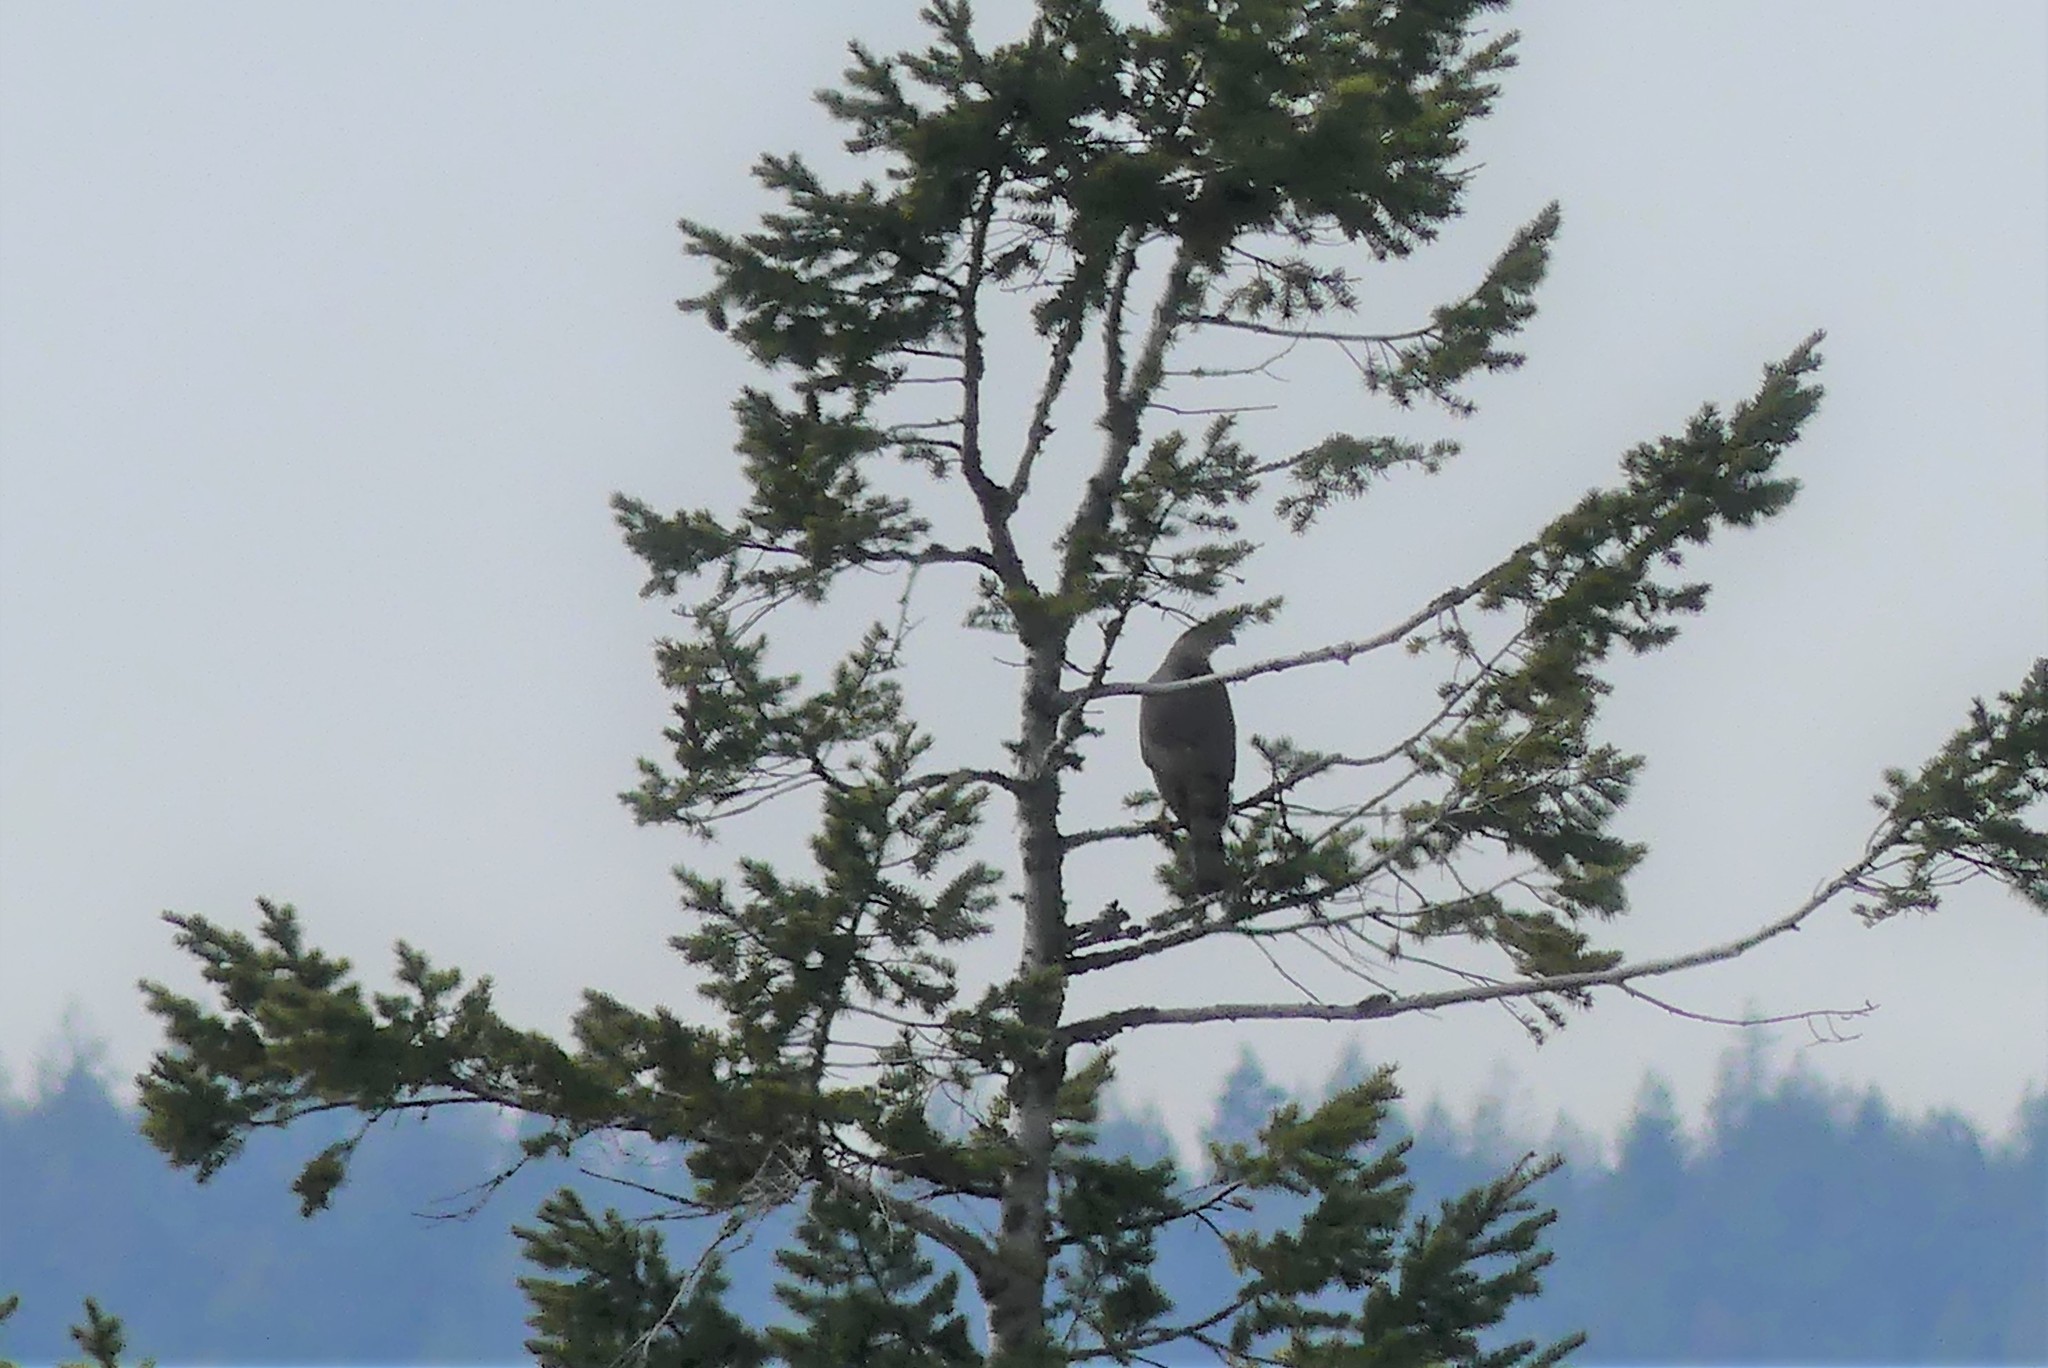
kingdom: Animalia
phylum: Chordata
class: Aves
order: Accipitriformes
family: Accipitridae
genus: Accipiter
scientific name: Accipiter cooperii
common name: Cooper's hawk
